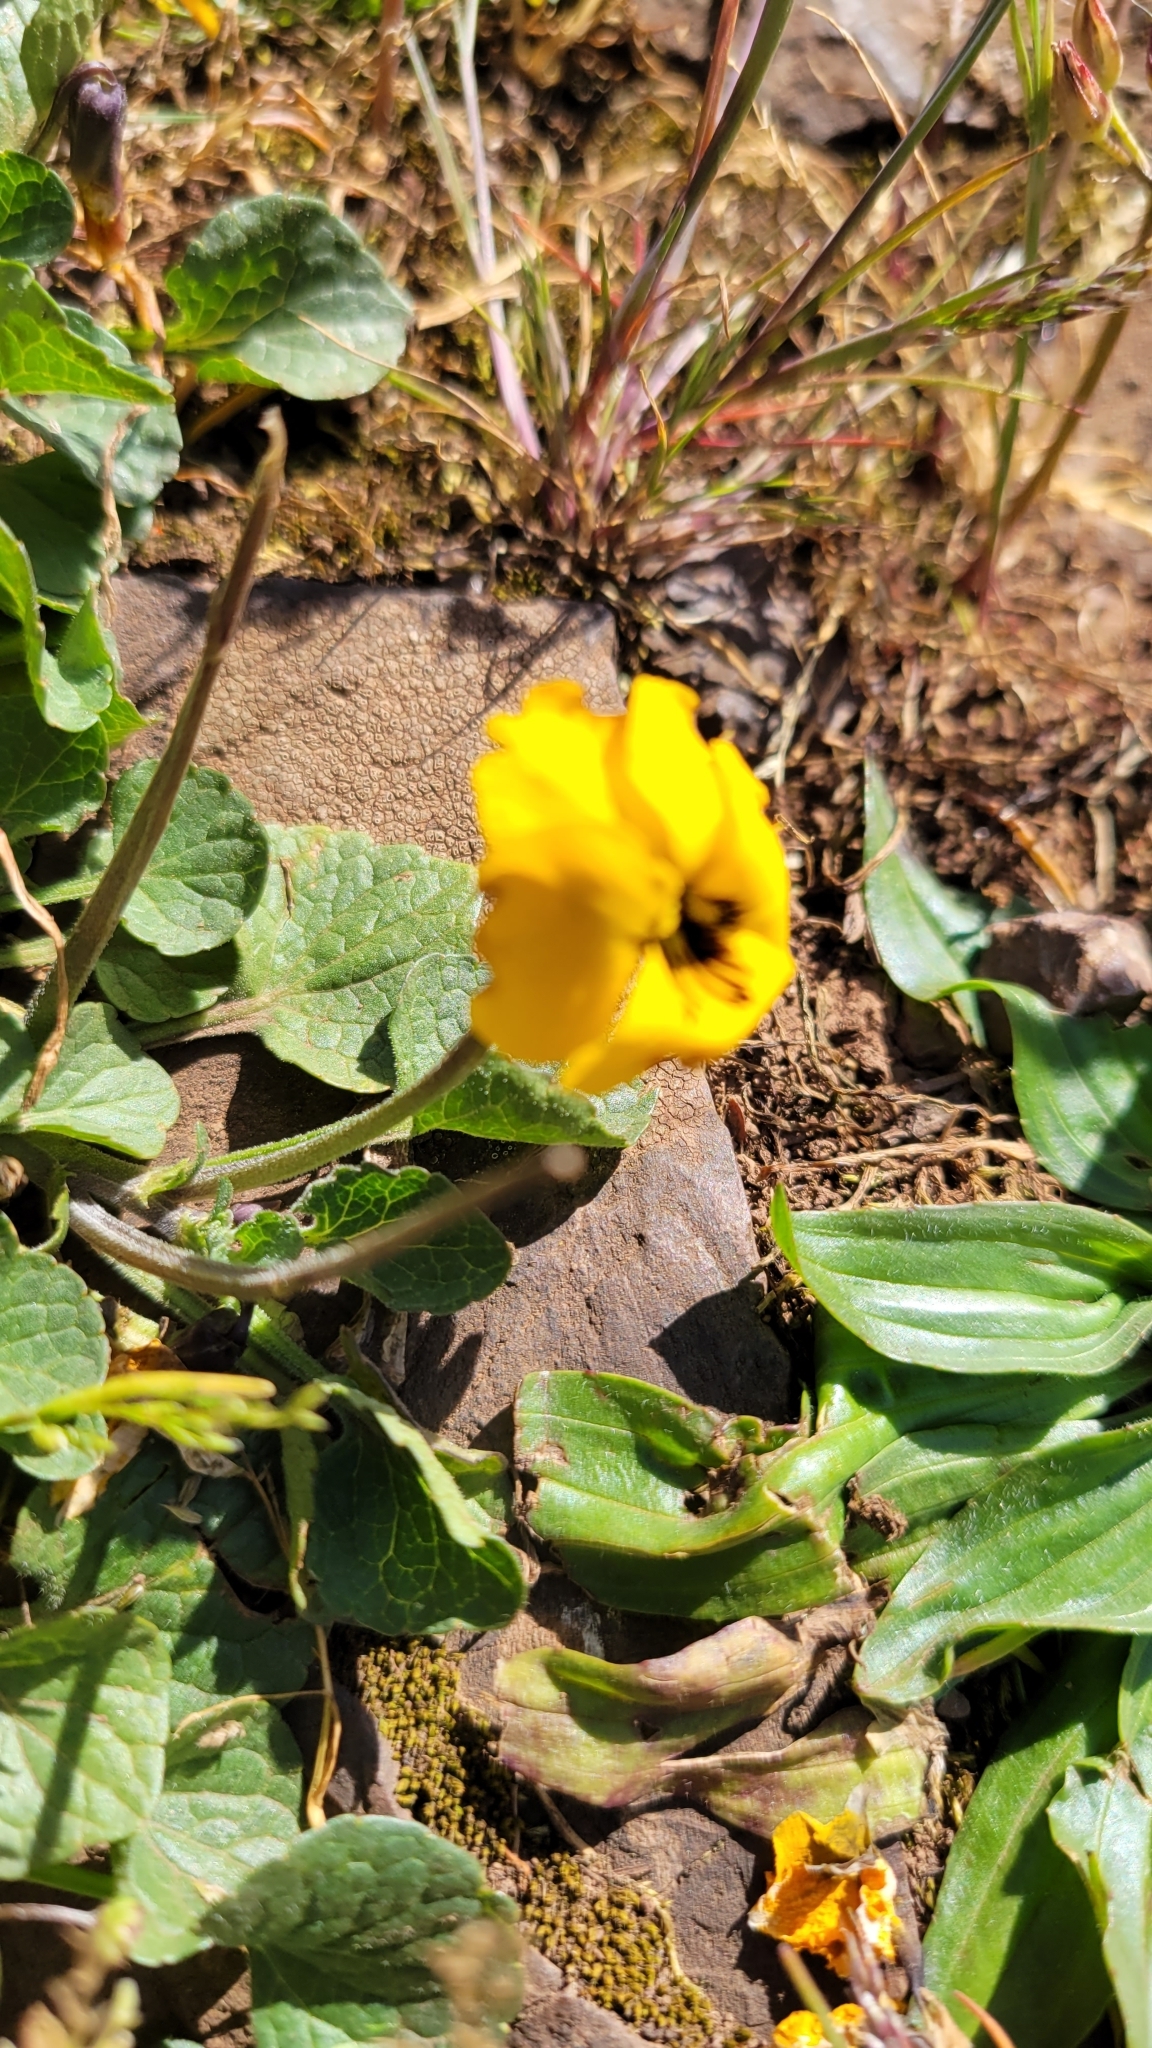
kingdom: Plantae
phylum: Tracheophyta
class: Magnoliopsida
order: Malpighiales
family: Violaceae
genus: Viola
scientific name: Viola pedunculata
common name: California golden violet
